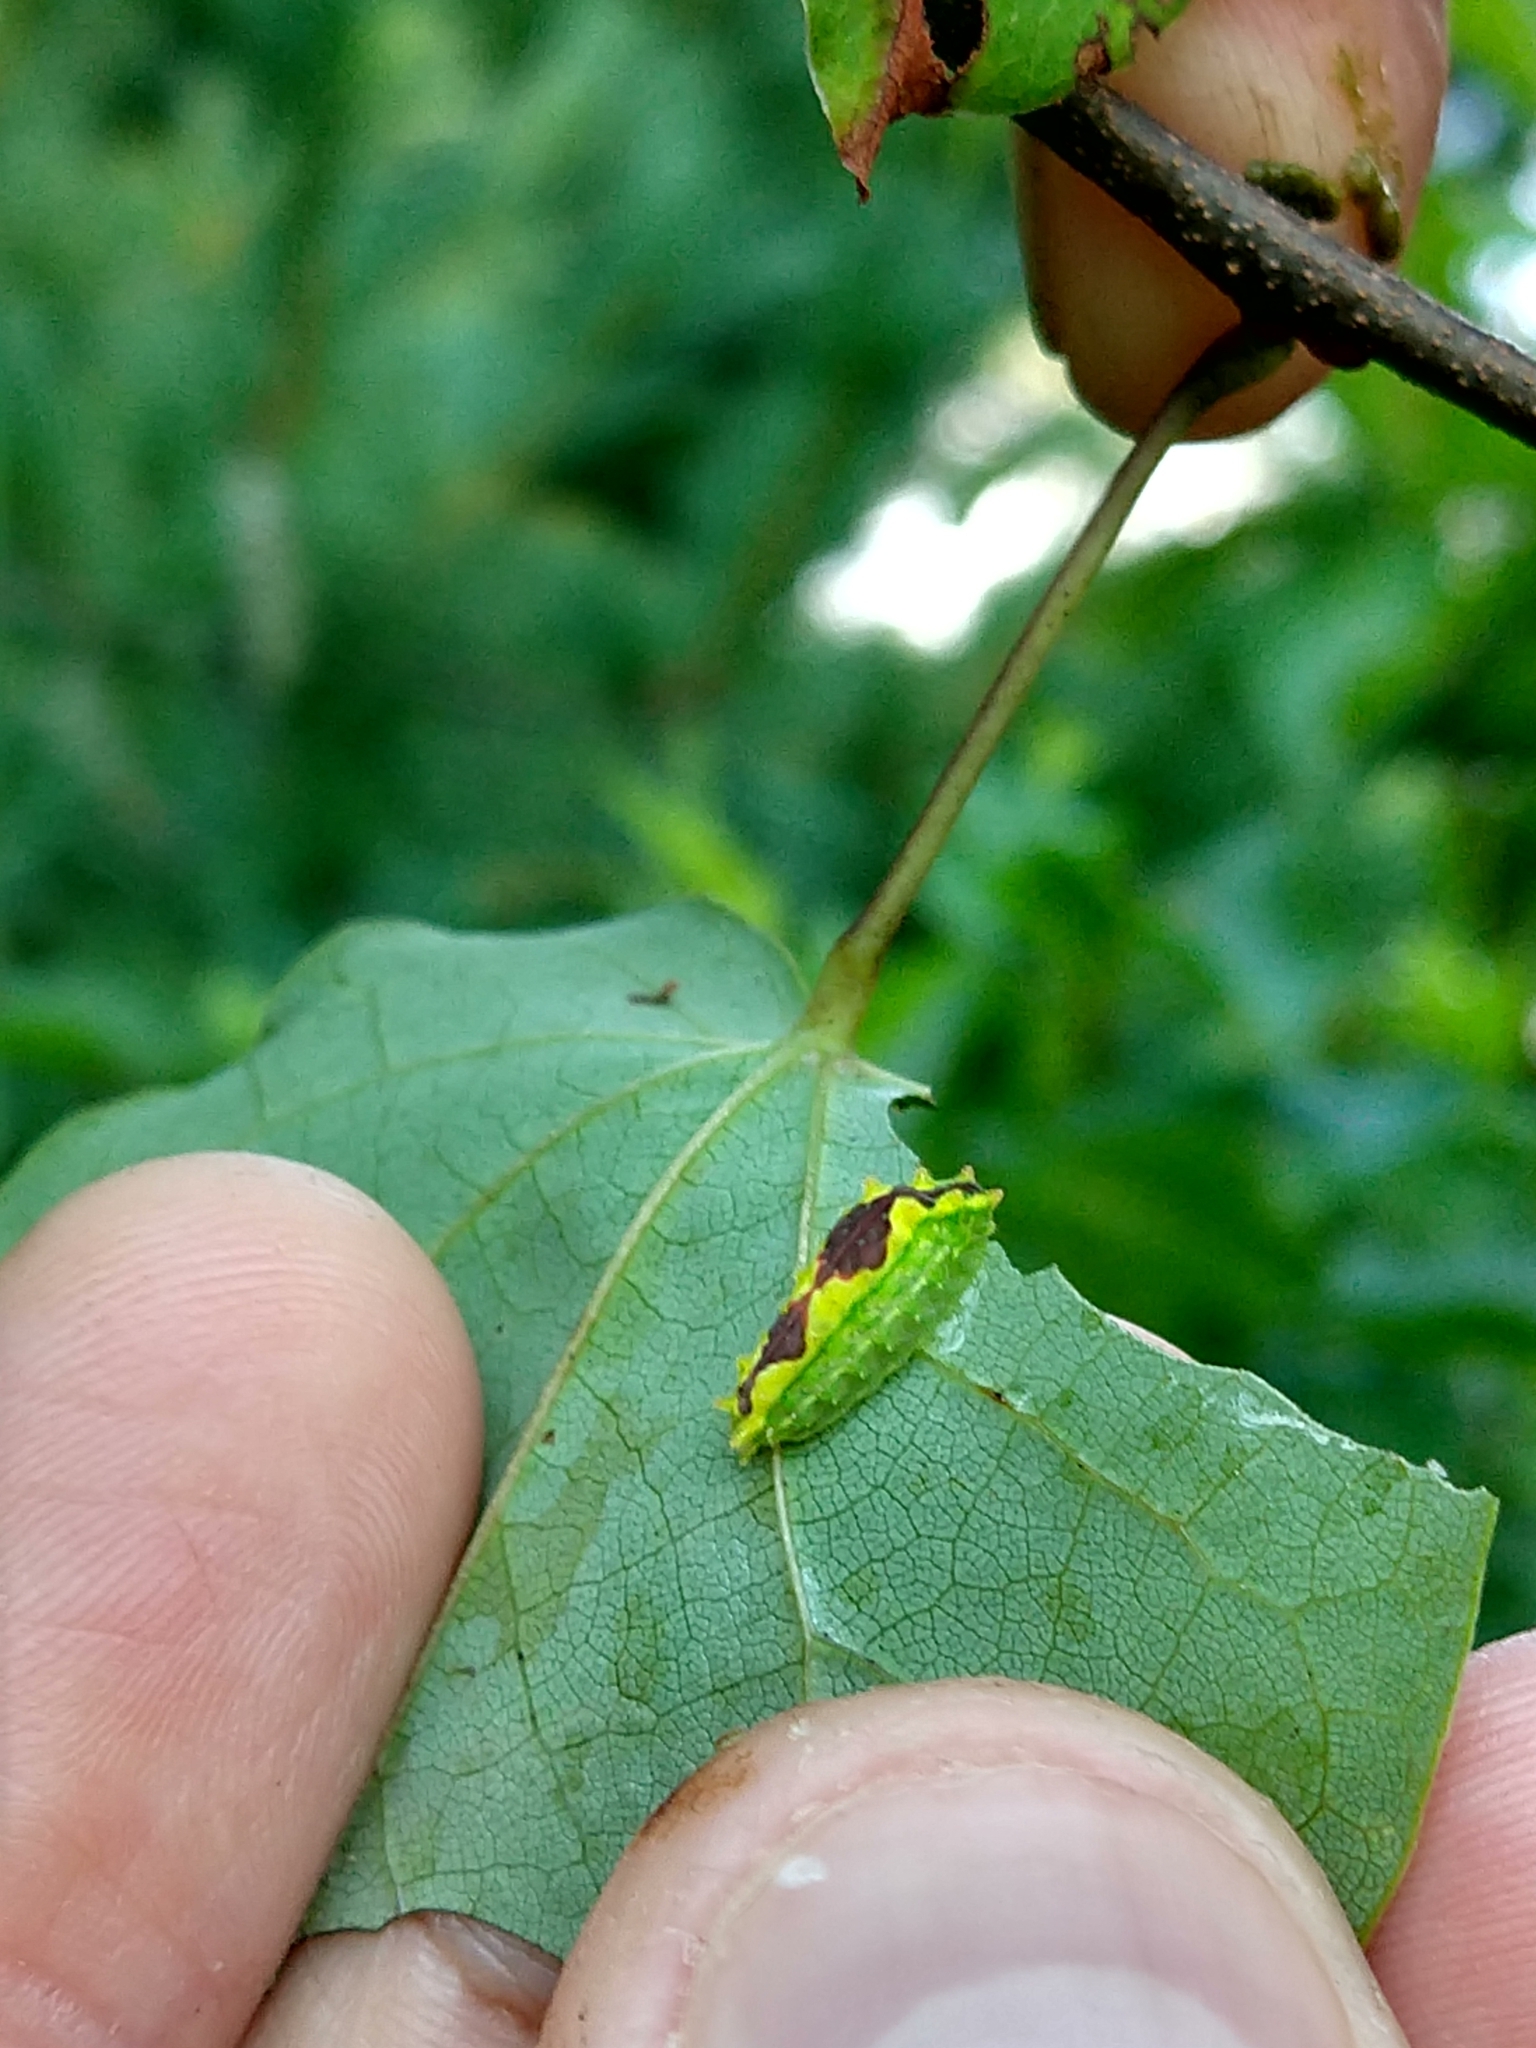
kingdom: Animalia
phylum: Arthropoda
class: Insecta
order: Lepidoptera
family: Limacodidae
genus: Adoneta
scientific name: Adoneta spinuloides
